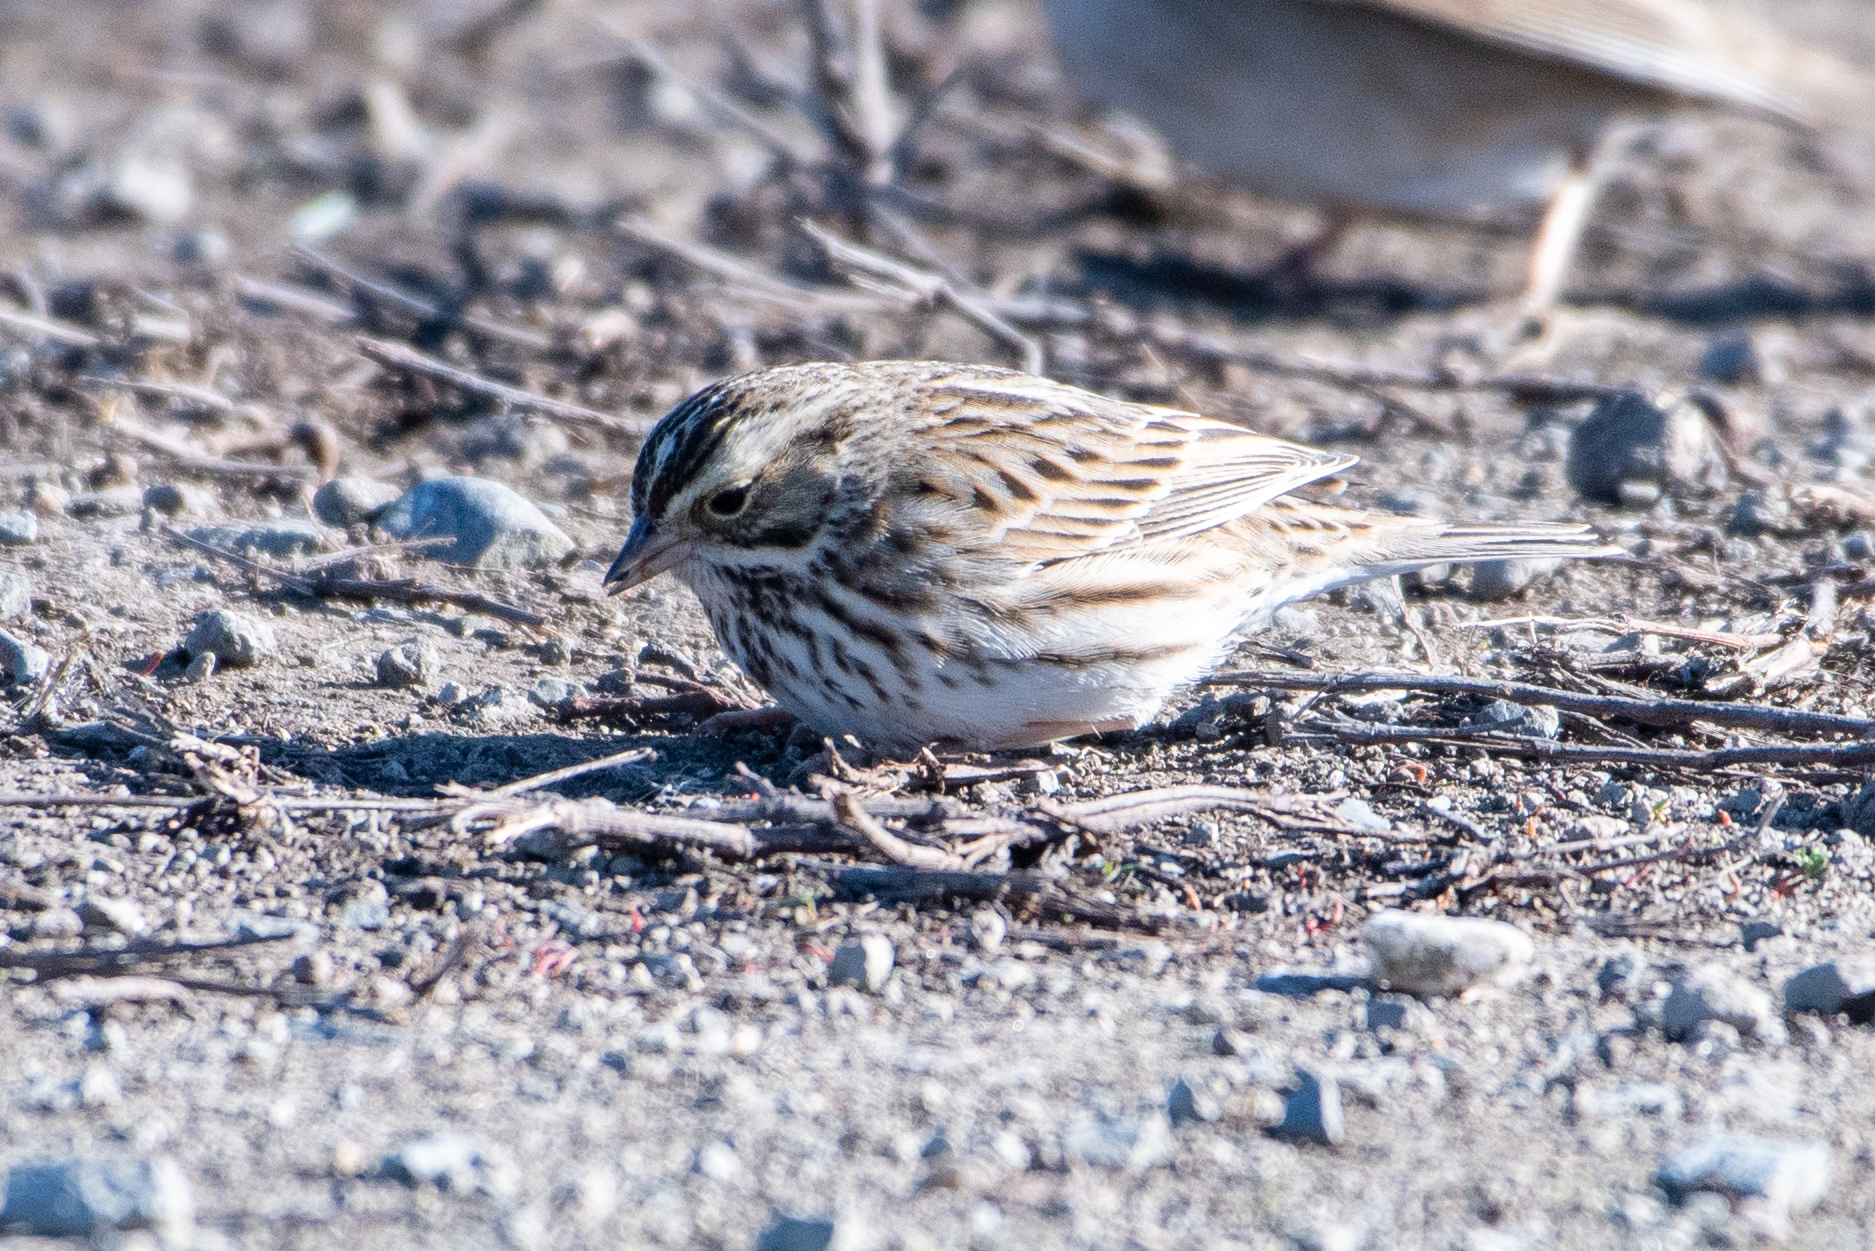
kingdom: Animalia
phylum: Chordata
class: Aves
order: Passeriformes
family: Passerellidae
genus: Passerculus
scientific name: Passerculus sandwichensis
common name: Savannah sparrow
